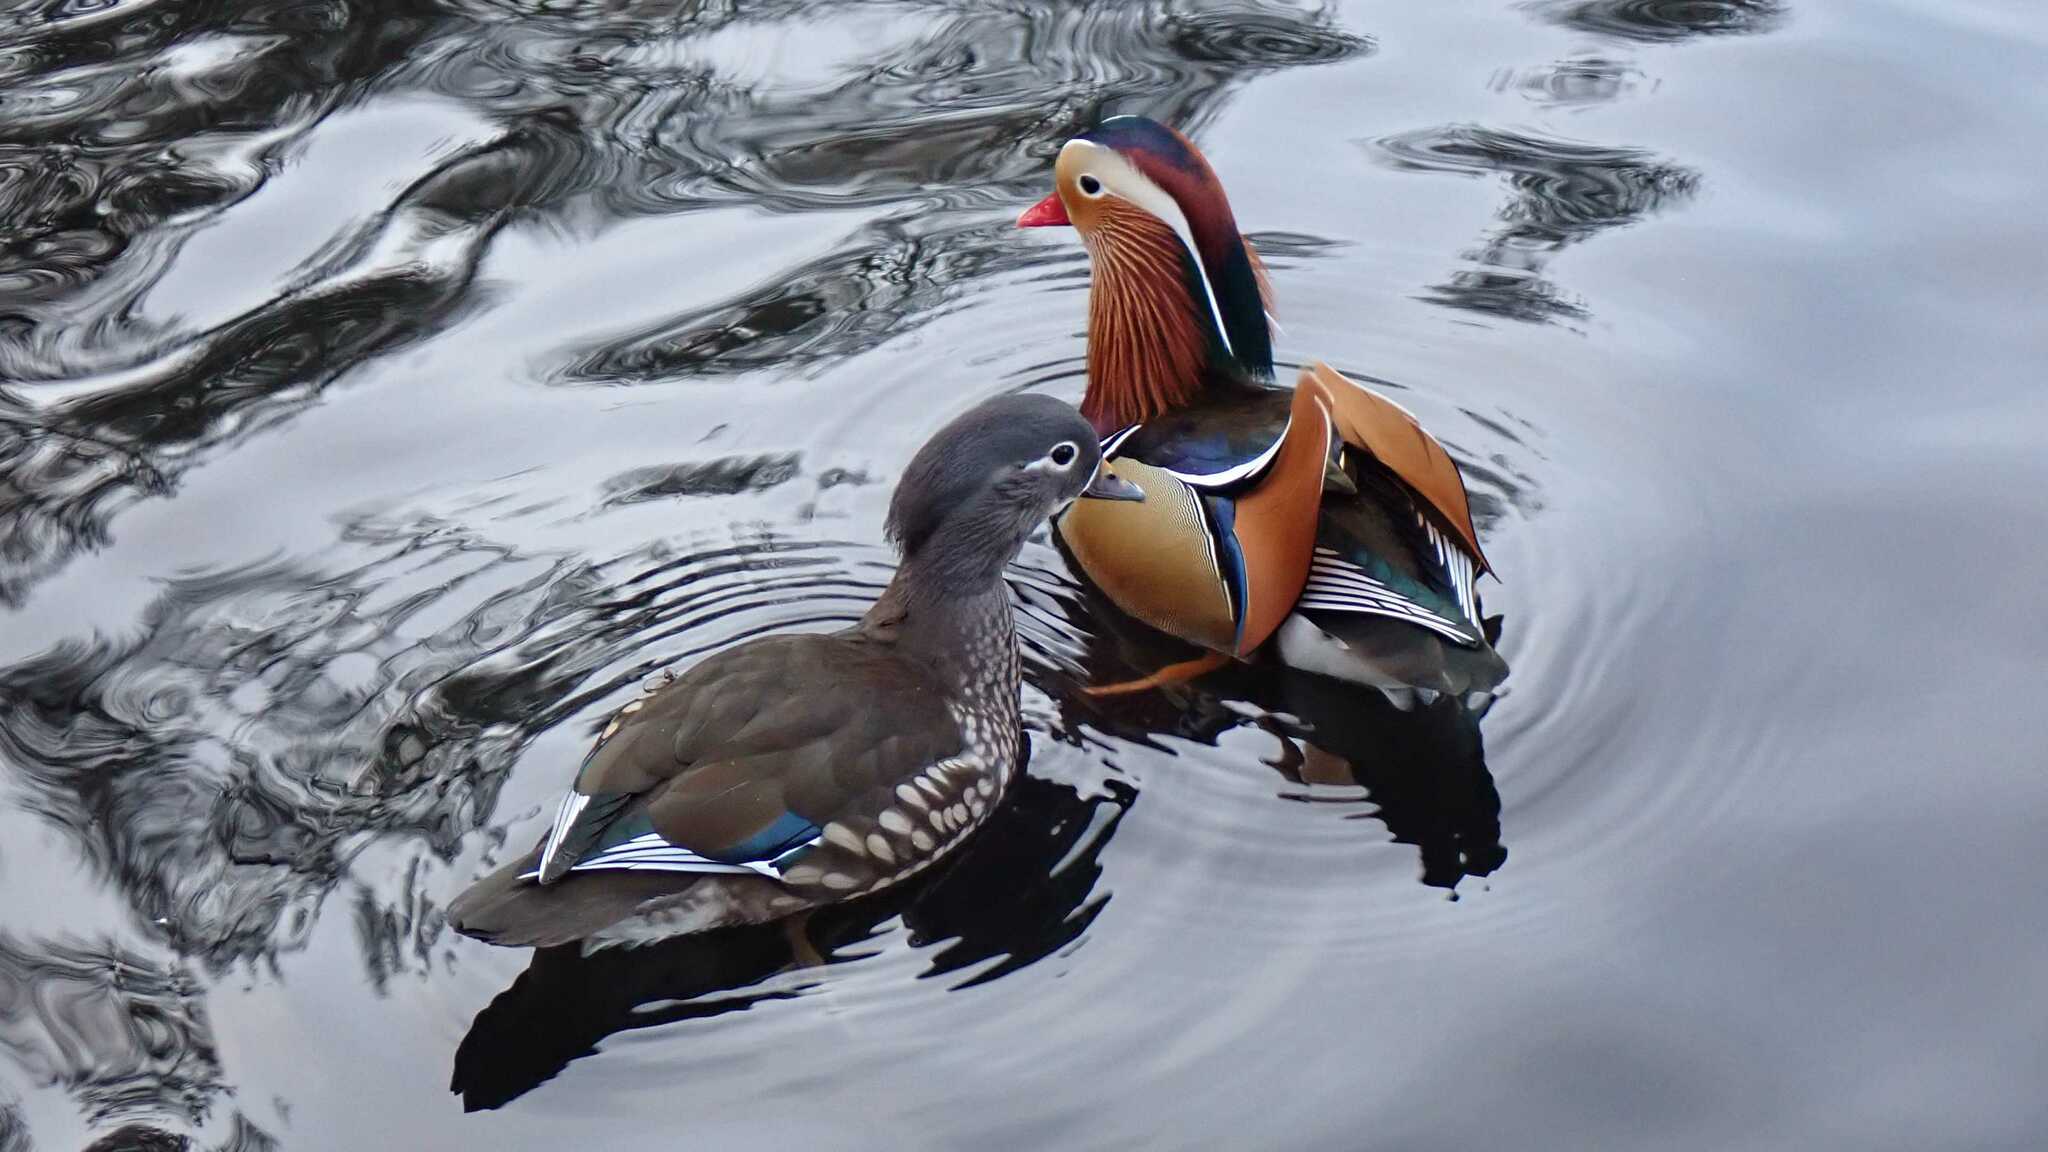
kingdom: Animalia
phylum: Chordata
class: Aves
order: Anseriformes
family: Anatidae
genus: Aix
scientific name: Aix galericulata
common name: Mandarin duck
